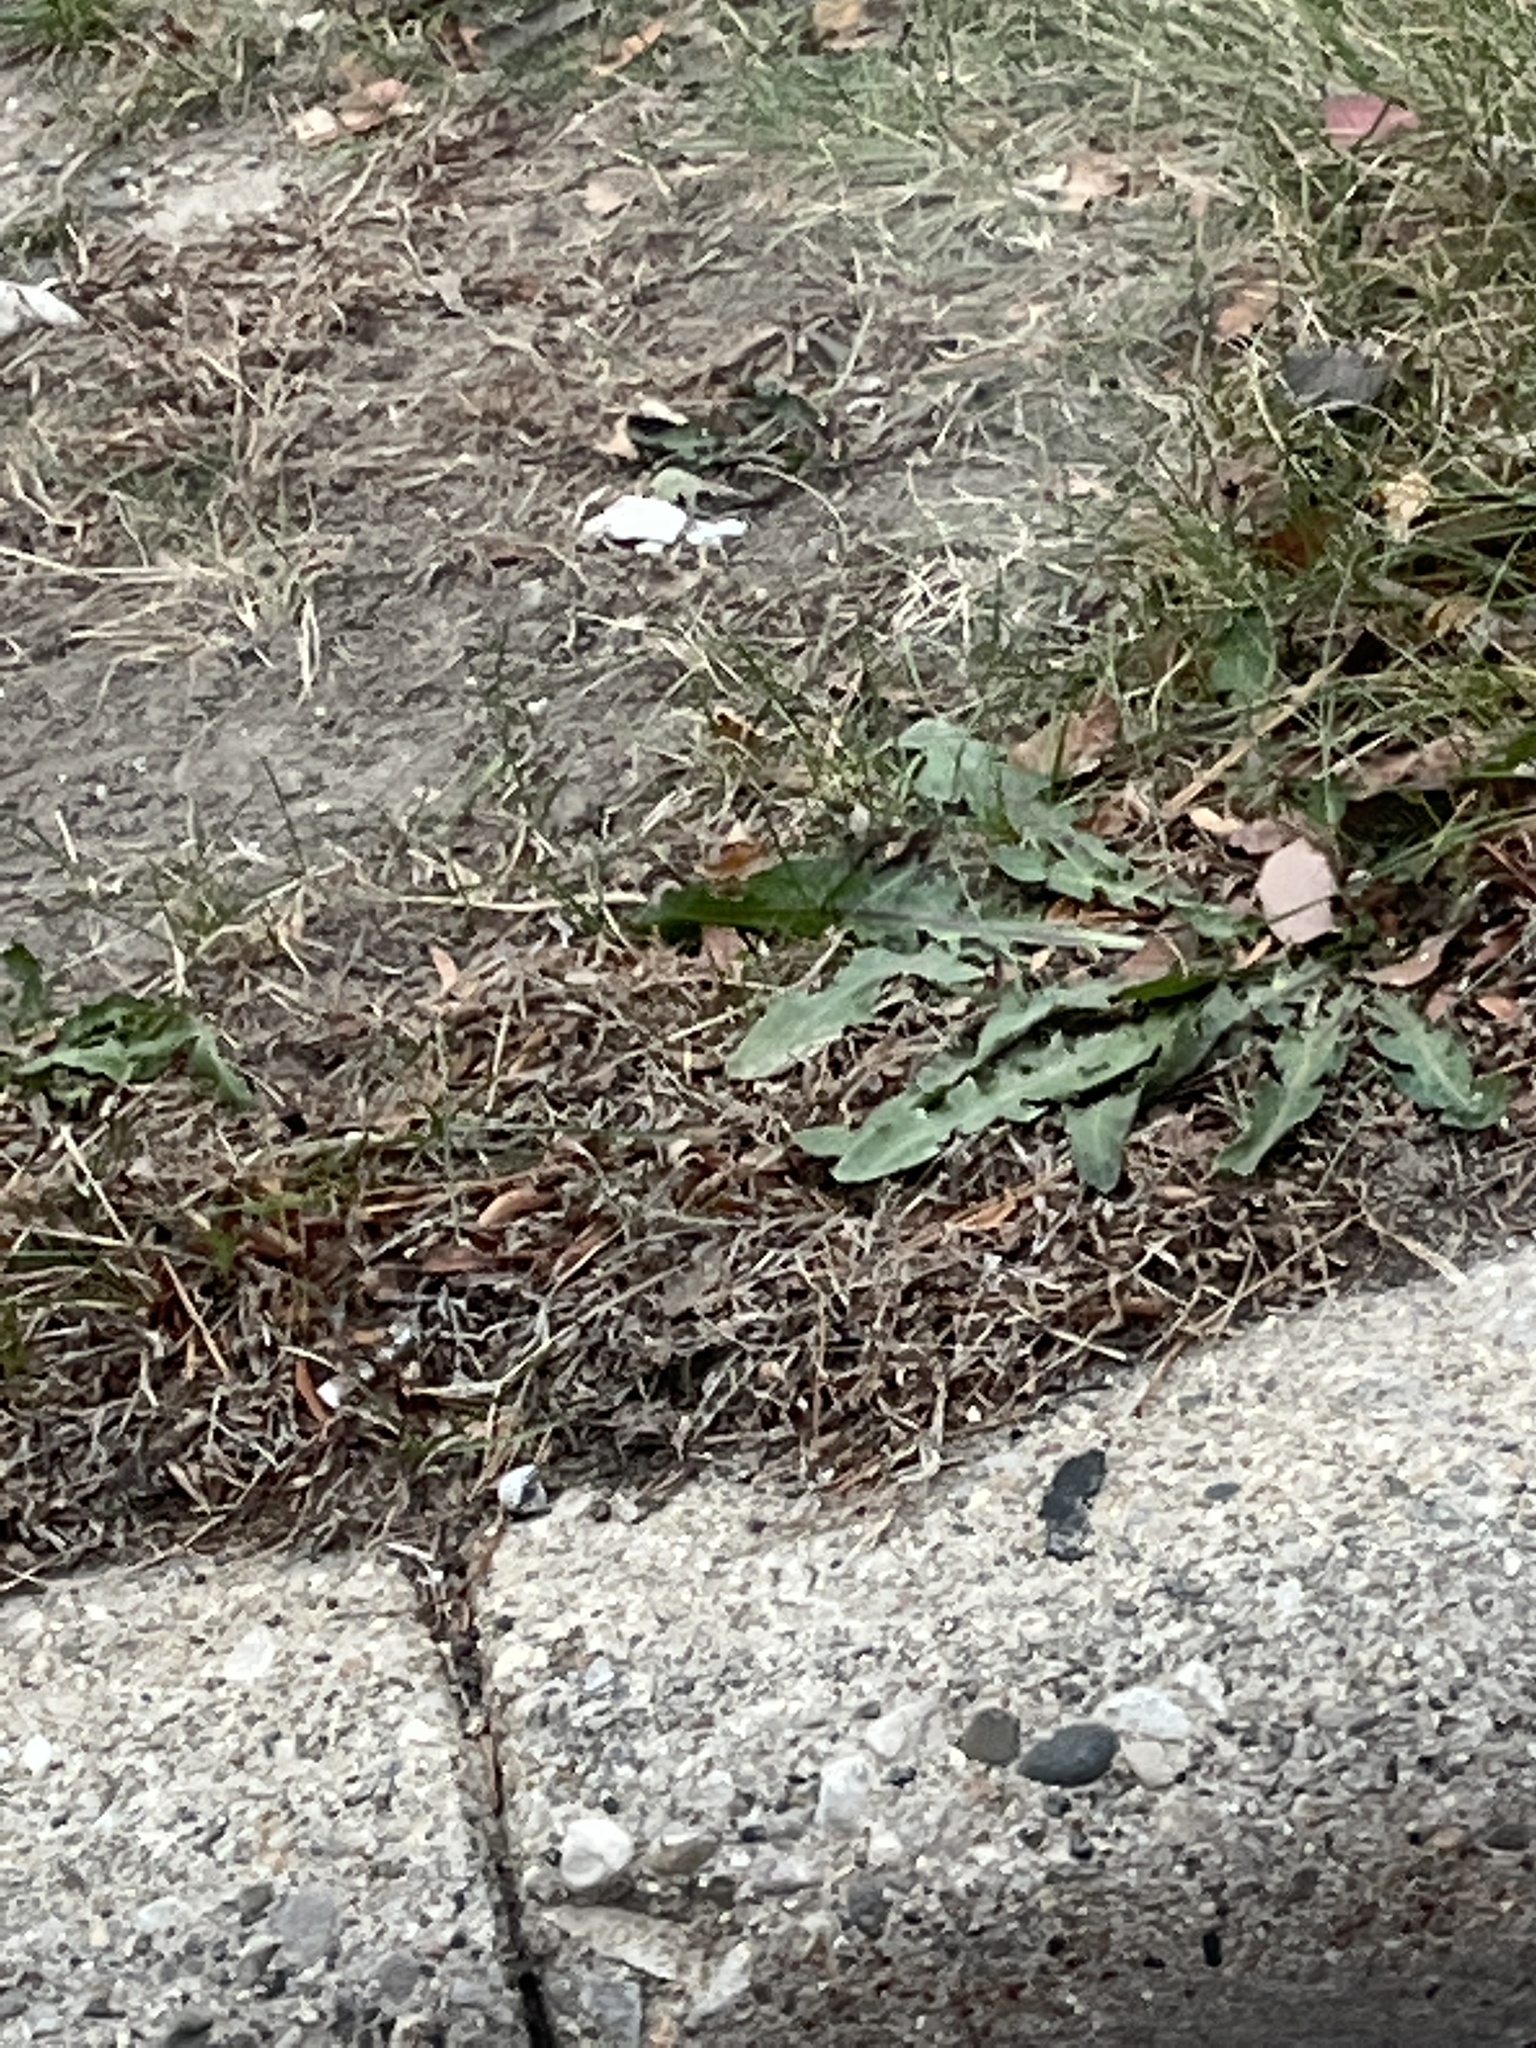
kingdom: Plantae
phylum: Tracheophyta
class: Magnoliopsida
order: Asterales
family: Asteraceae
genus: Taraxacum
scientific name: Taraxacum
